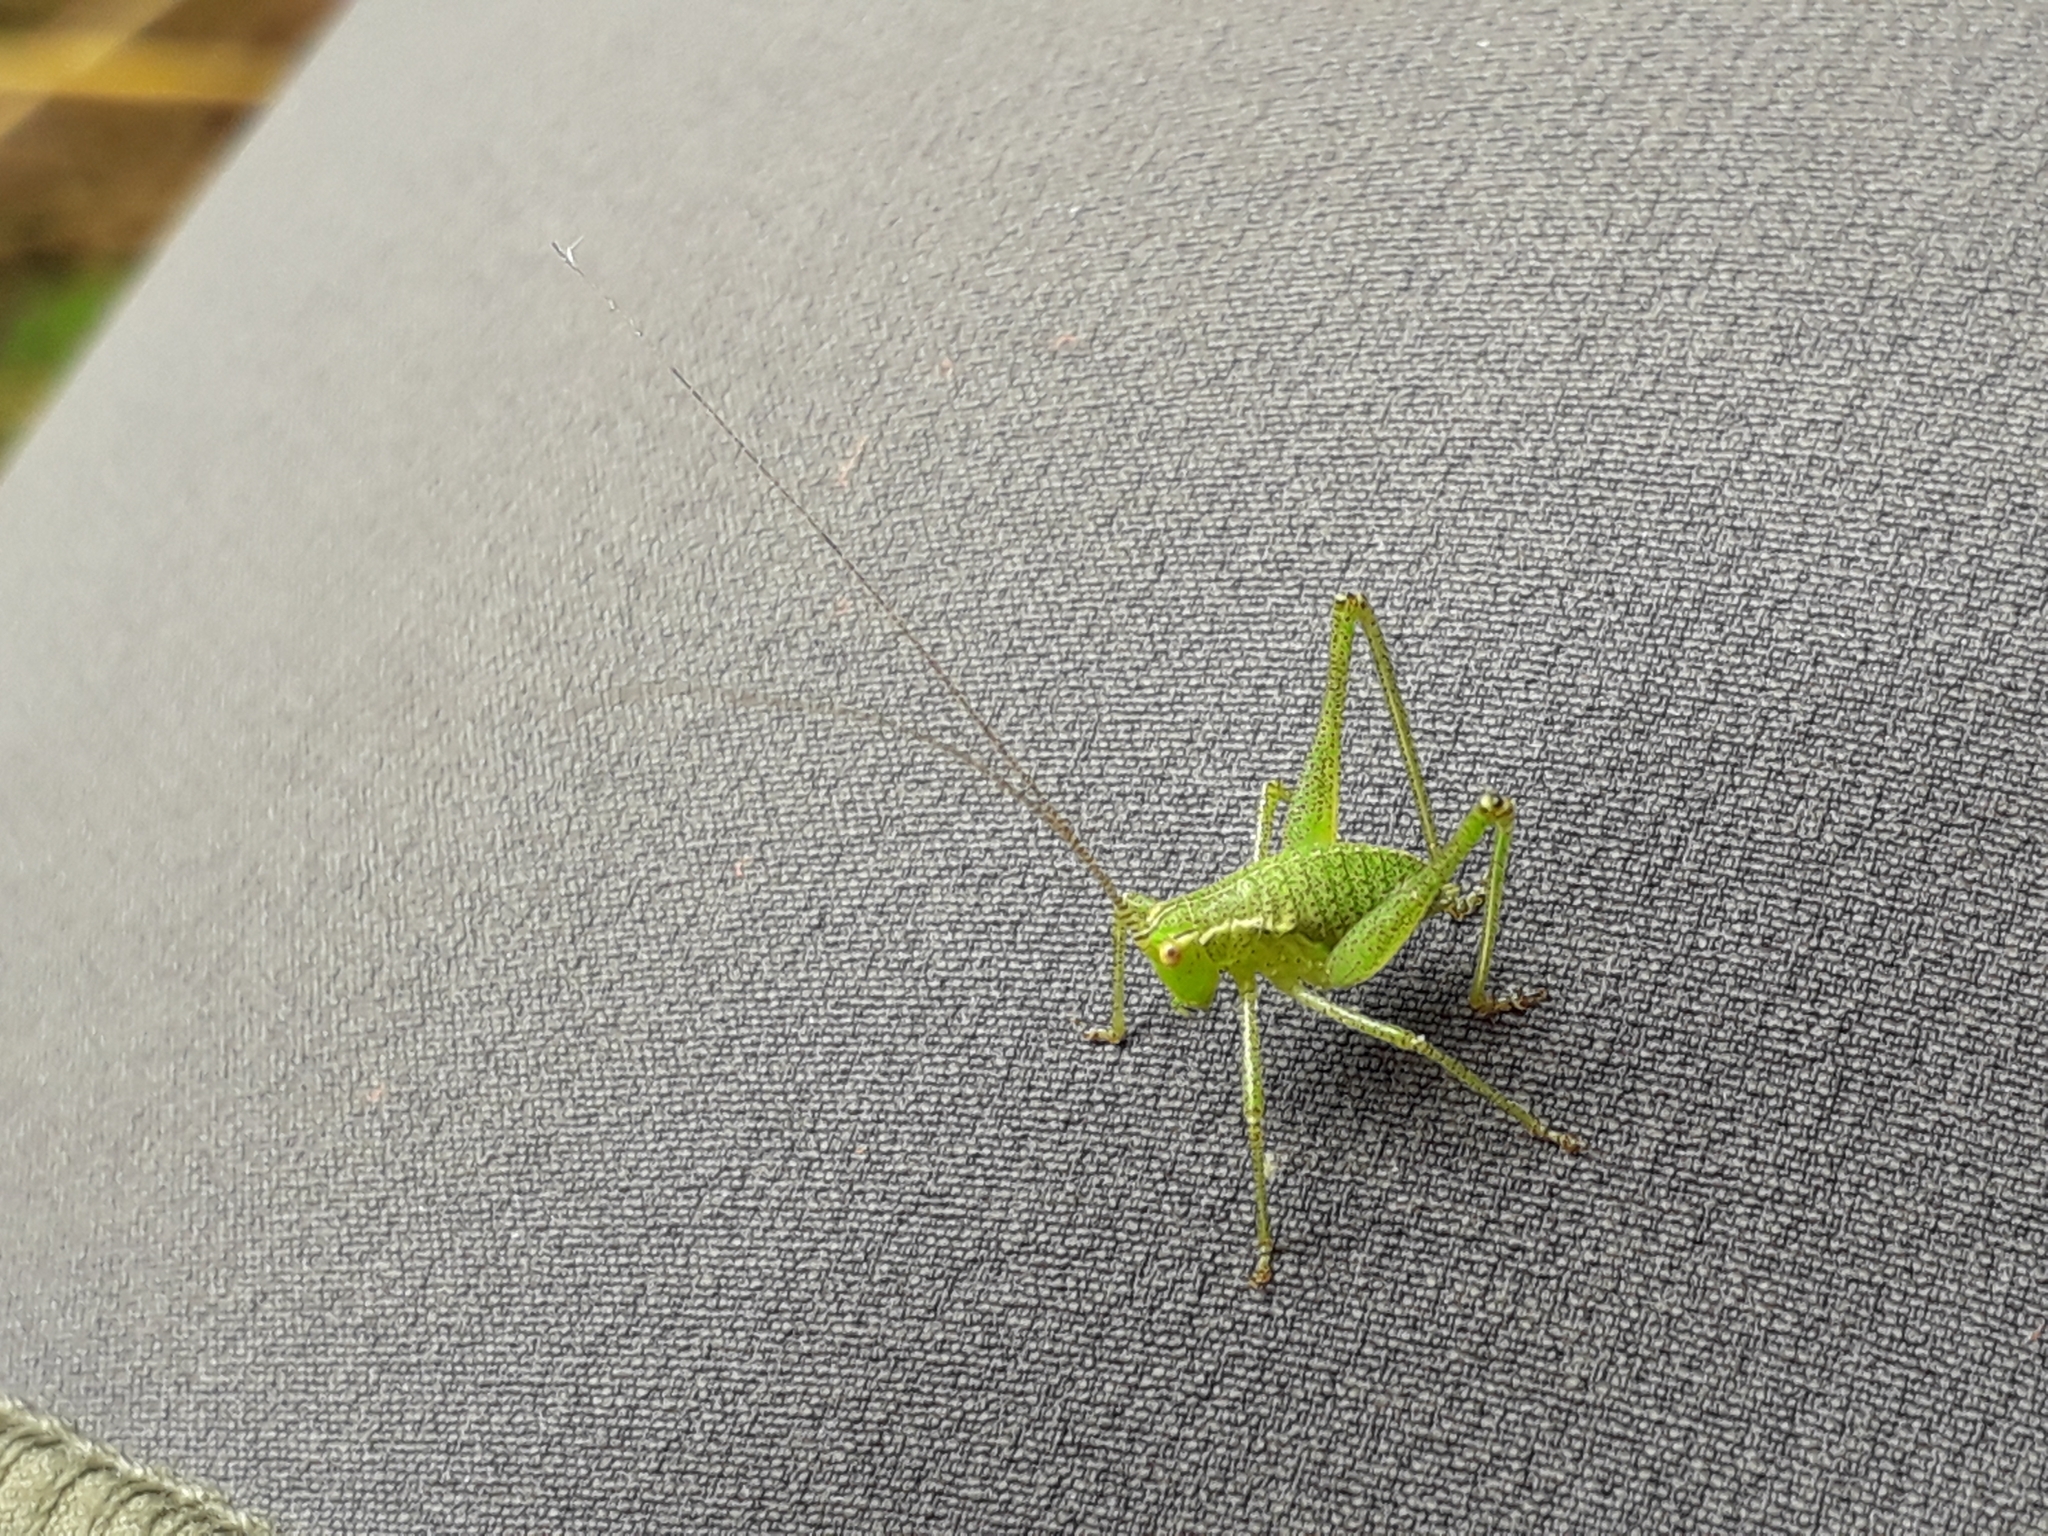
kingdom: Animalia
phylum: Arthropoda
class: Insecta
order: Orthoptera
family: Tettigoniidae
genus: Leptophyes
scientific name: Leptophyes punctatissima
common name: Speckled bush-cricket
